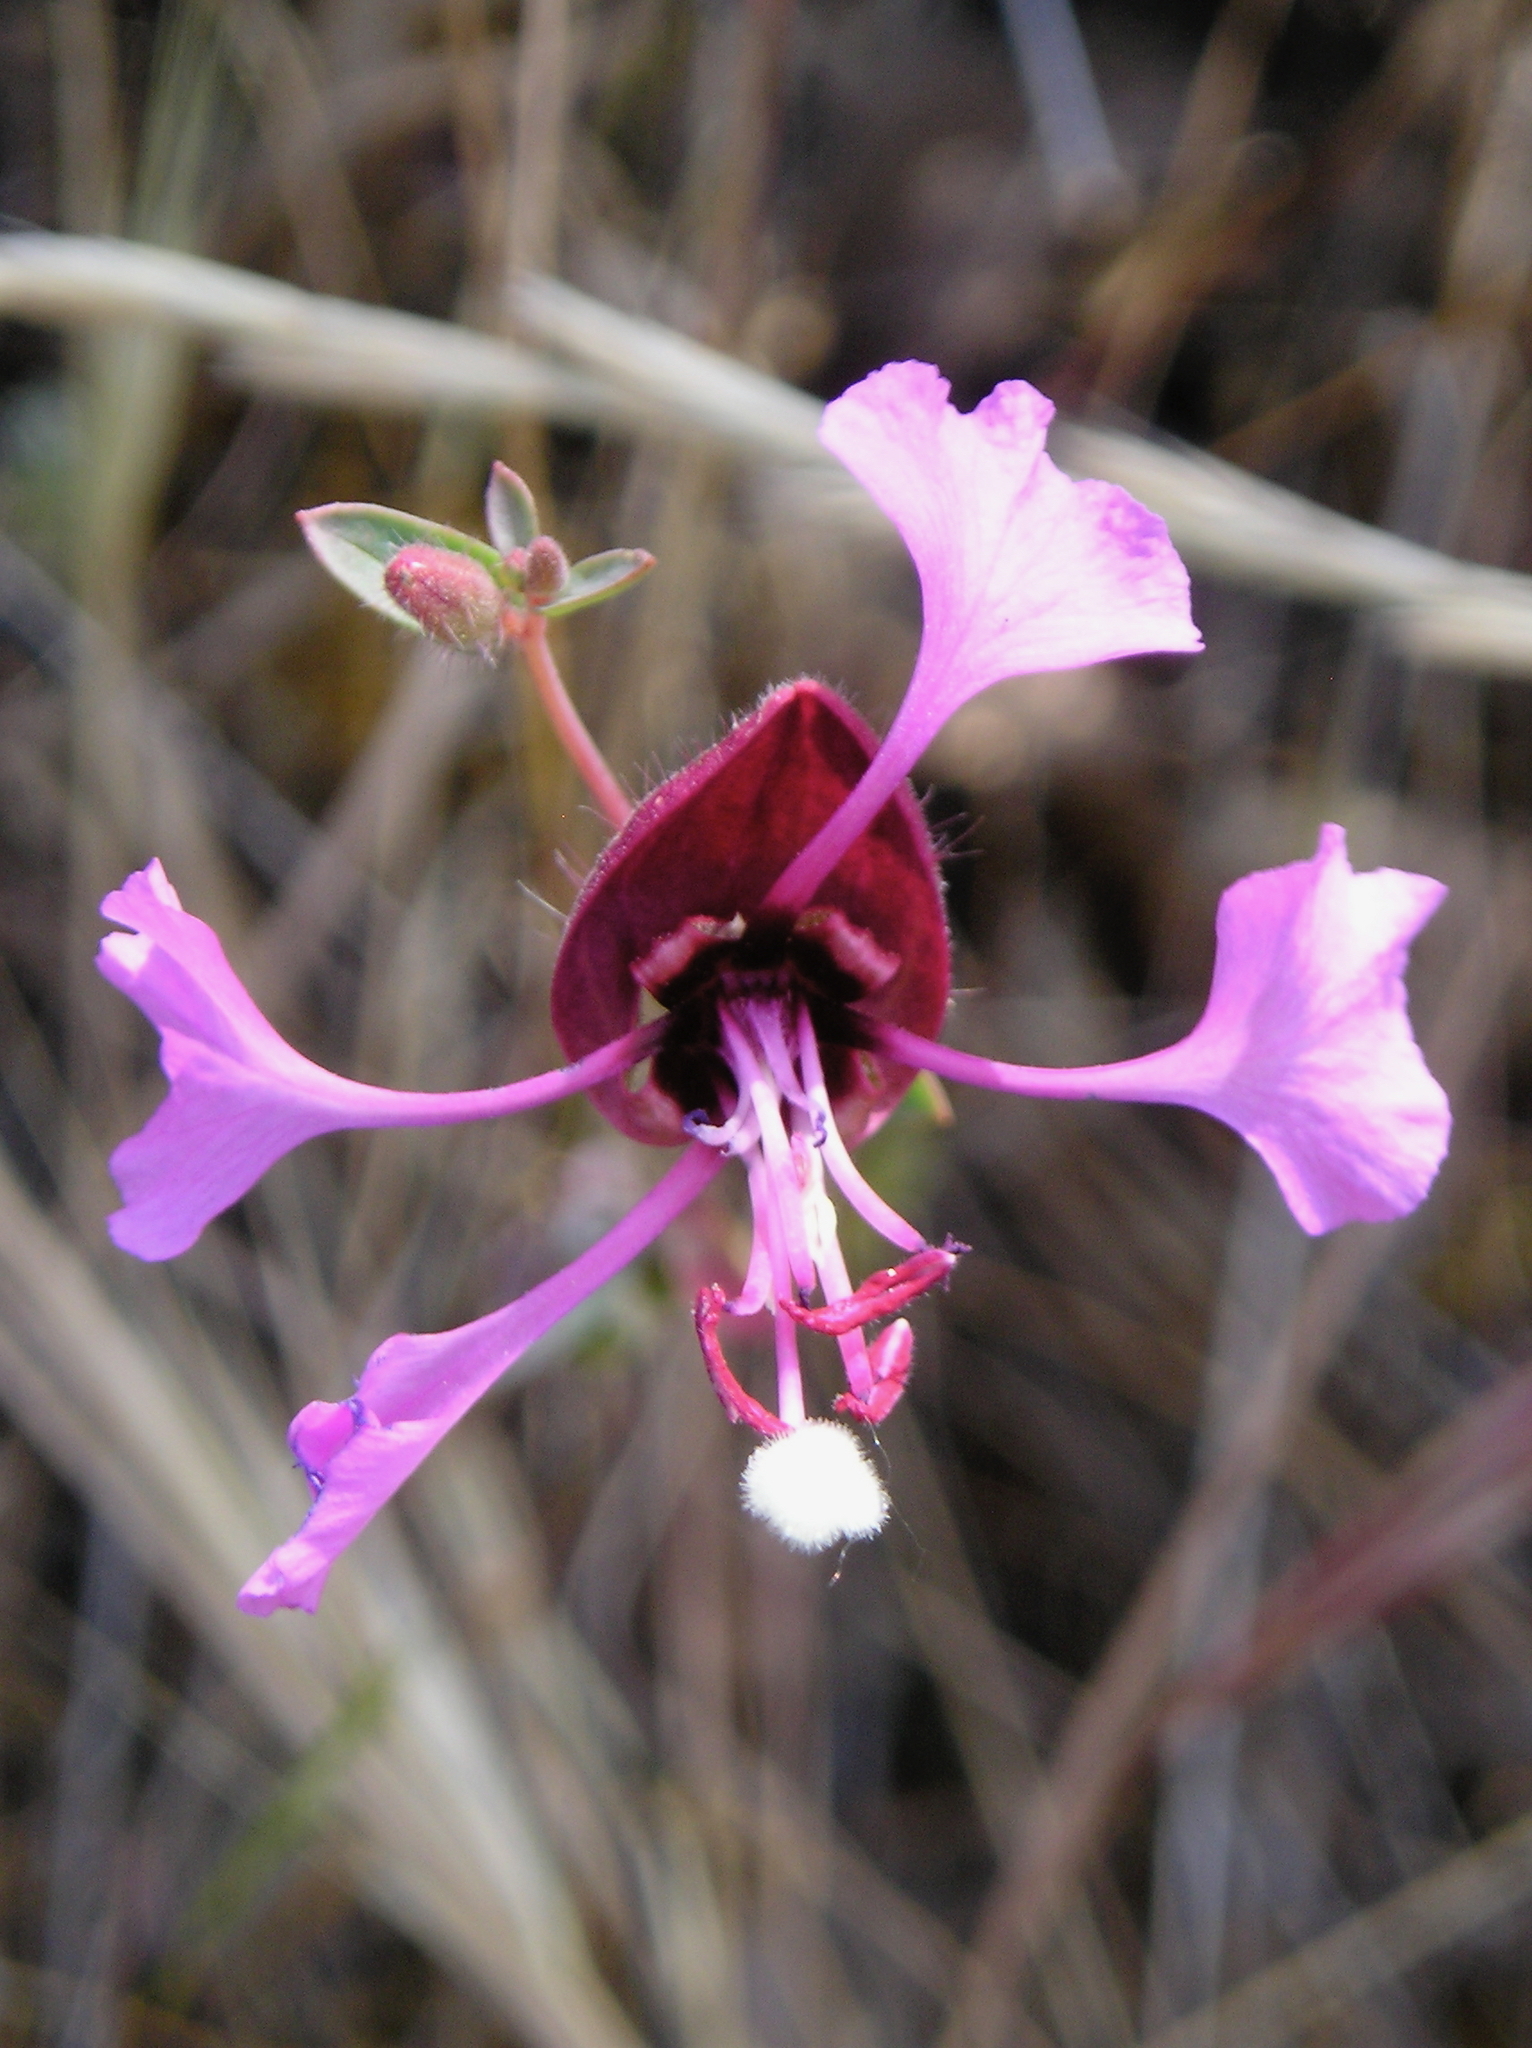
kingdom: Plantae
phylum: Tracheophyta
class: Magnoliopsida
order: Myrtales
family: Onagraceae
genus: Clarkia
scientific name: Clarkia unguiculata
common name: Clarkia
